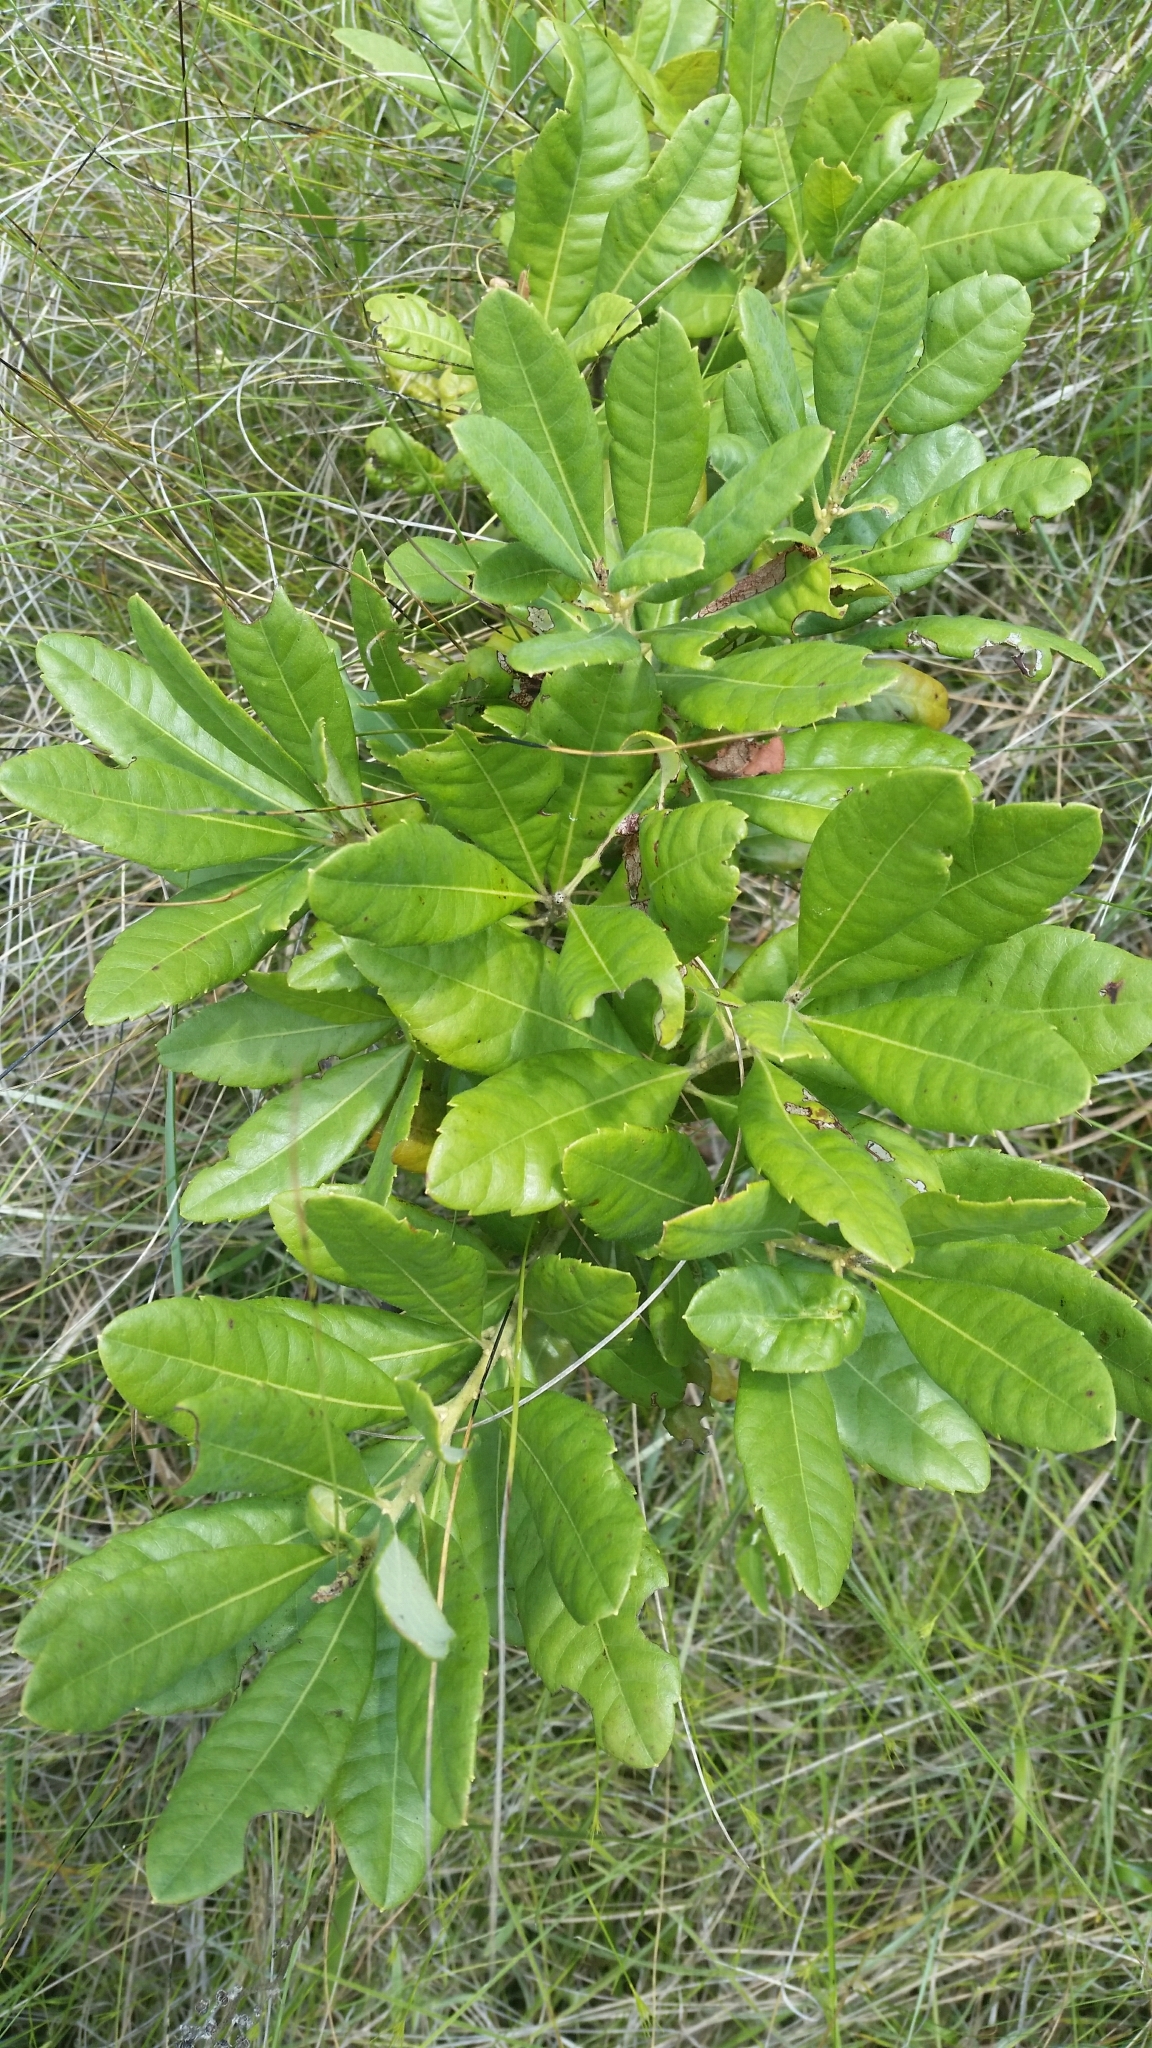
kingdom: Plantae
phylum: Tracheophyta
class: Magnoliopsida
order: Fagales
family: Myricaceae
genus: Morella
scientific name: Morella caroliniensis
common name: Evergreen bayberry
